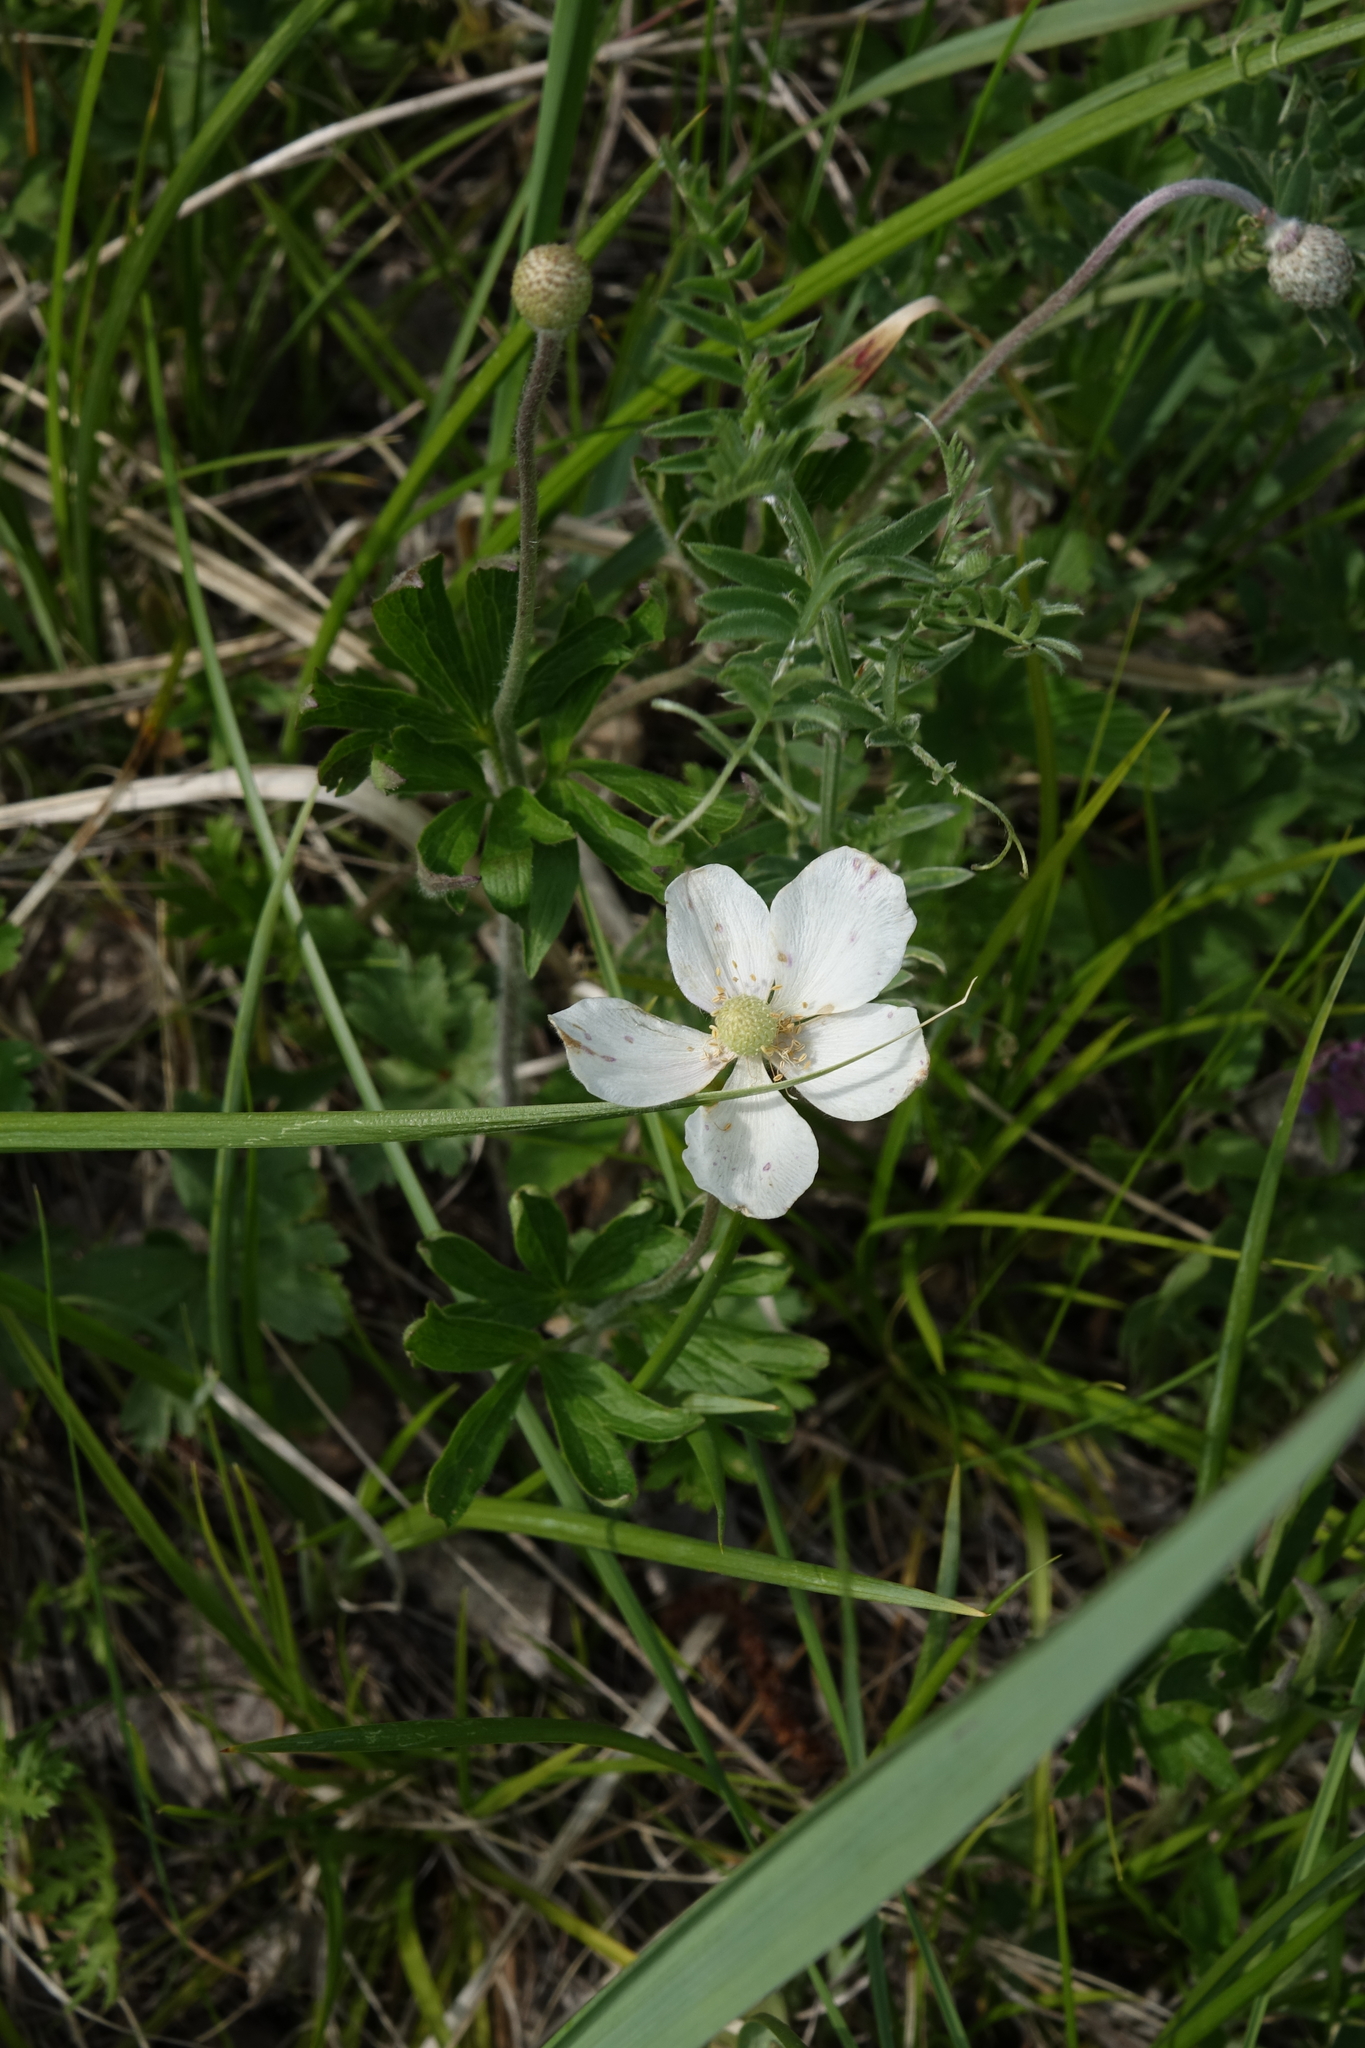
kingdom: Plantae
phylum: Tracheophyta
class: Magnoliopsida
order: Ranunculales
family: Ranunculaceae
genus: Anemone
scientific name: Anemone sylvestris
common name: Snowdrop anemone
